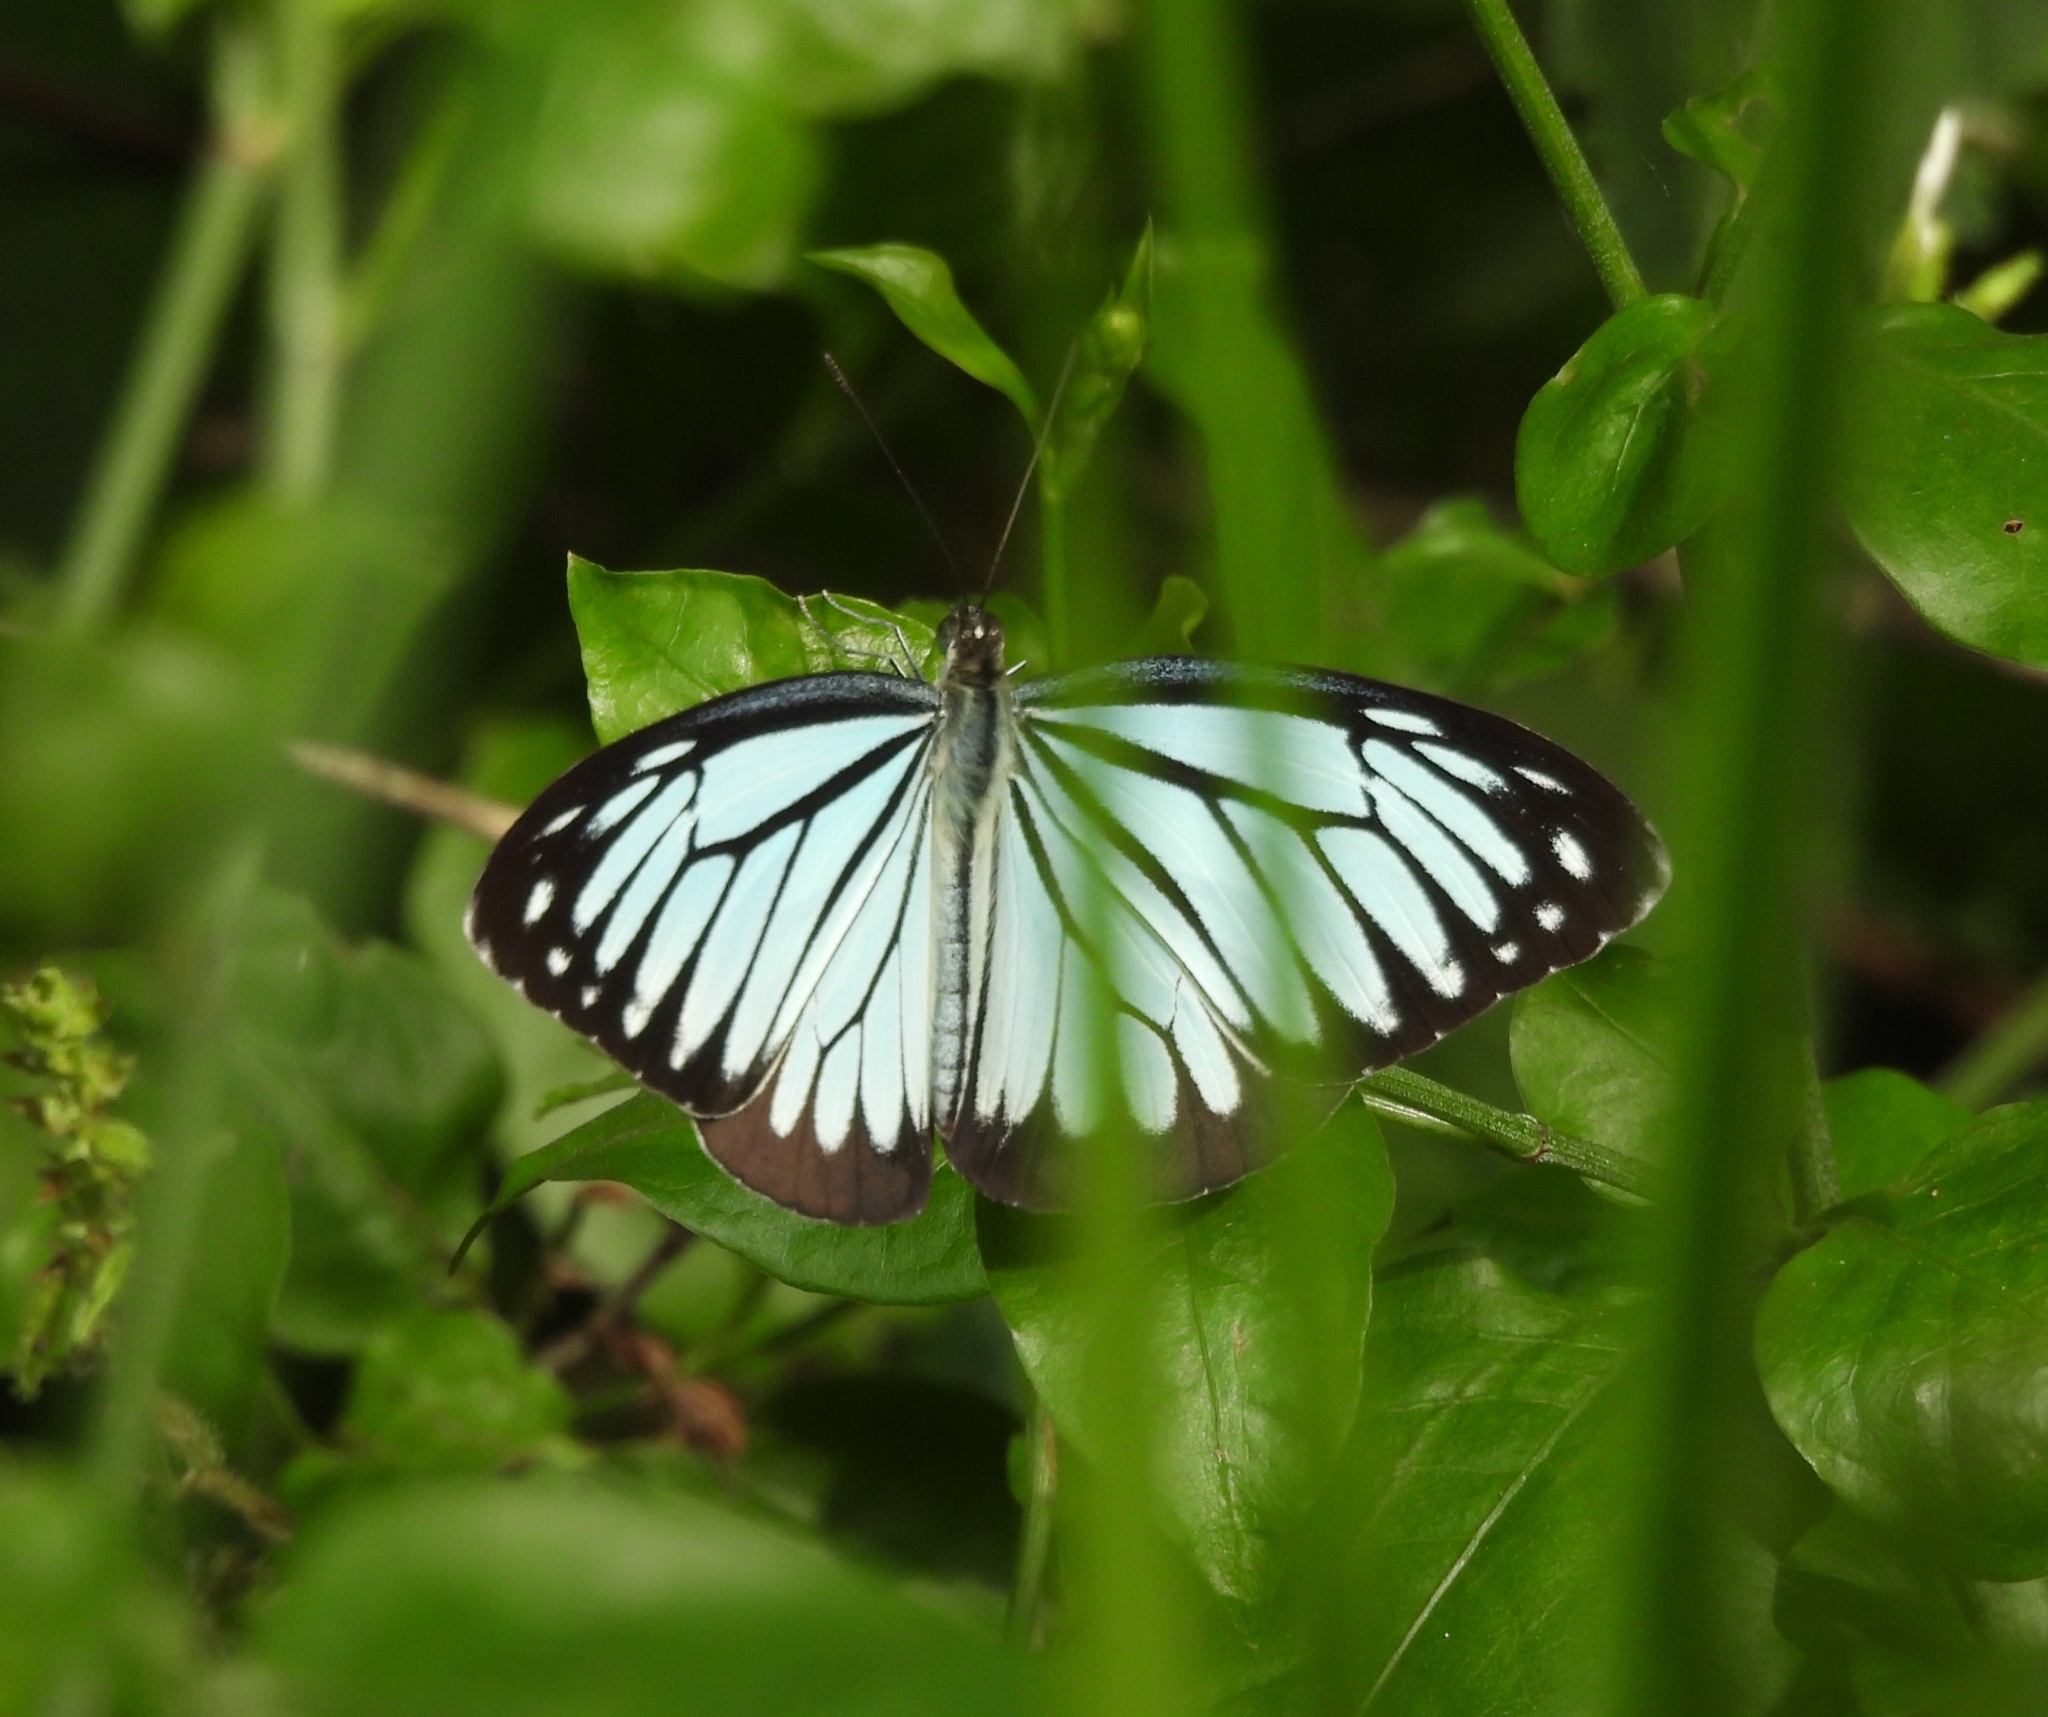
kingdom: Animalia
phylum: Arthropoda
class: Insecta
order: Lepidoptera
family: Pieridae
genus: Pareronia
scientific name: Pareronia hippia
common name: Indian wanderer
